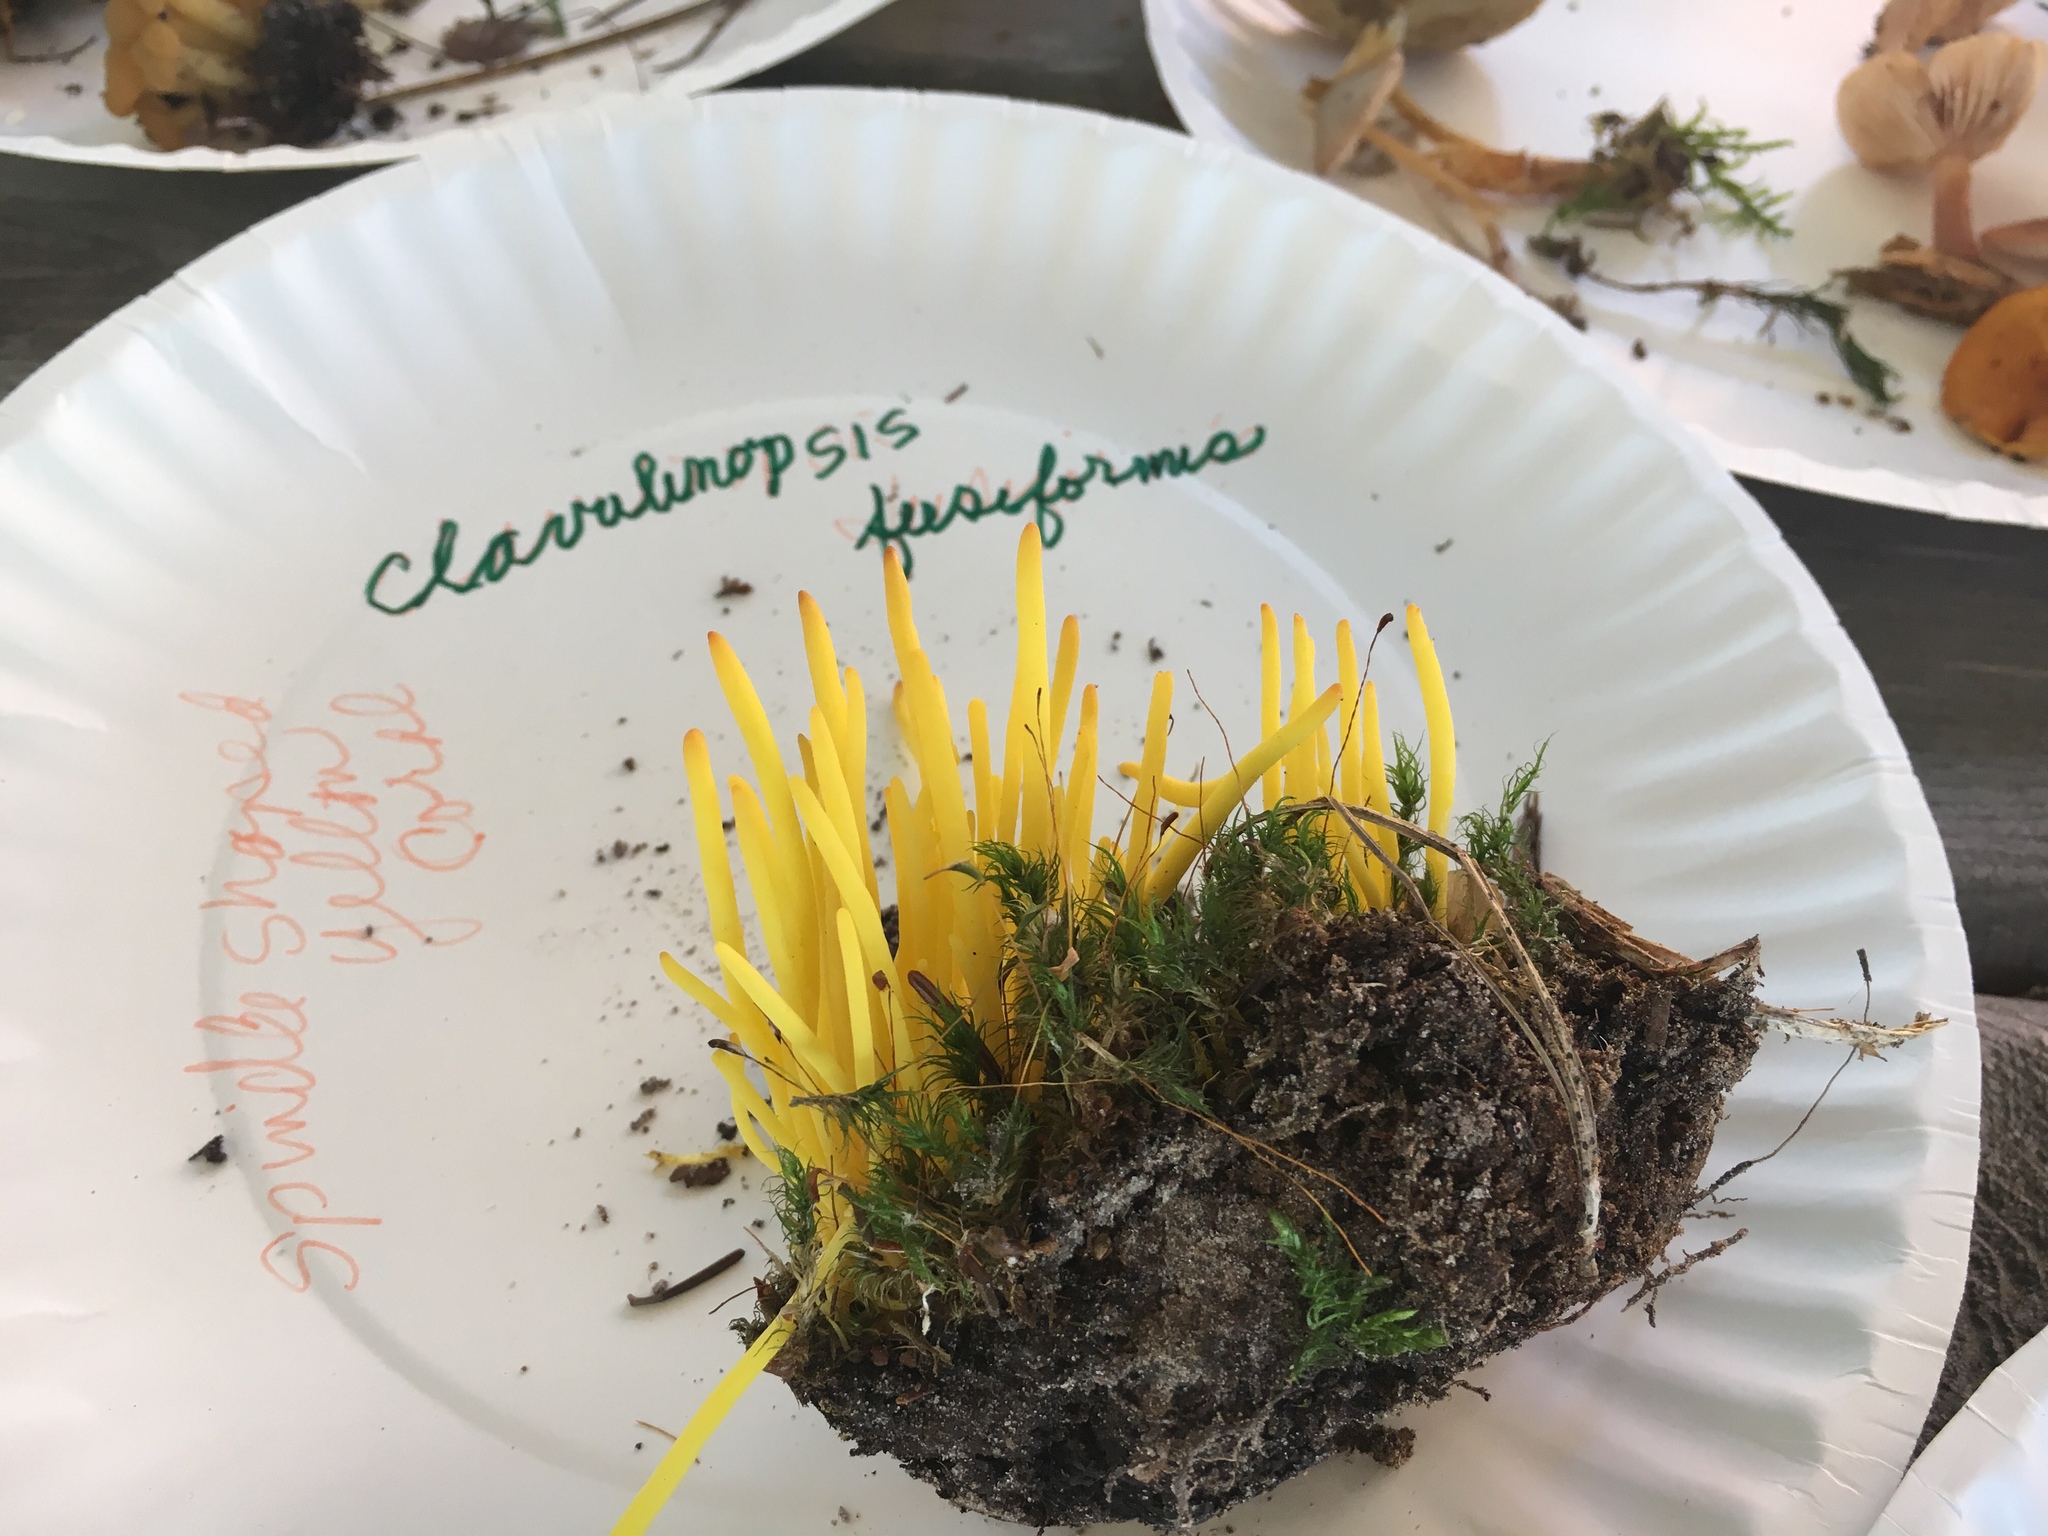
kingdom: Fungi
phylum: Basidiomycota
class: Agaricomycetes
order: Agaricales
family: Clavariaceae
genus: Clavulinopsis
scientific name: Clavulinopsis fusiformis
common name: Golden spindles
